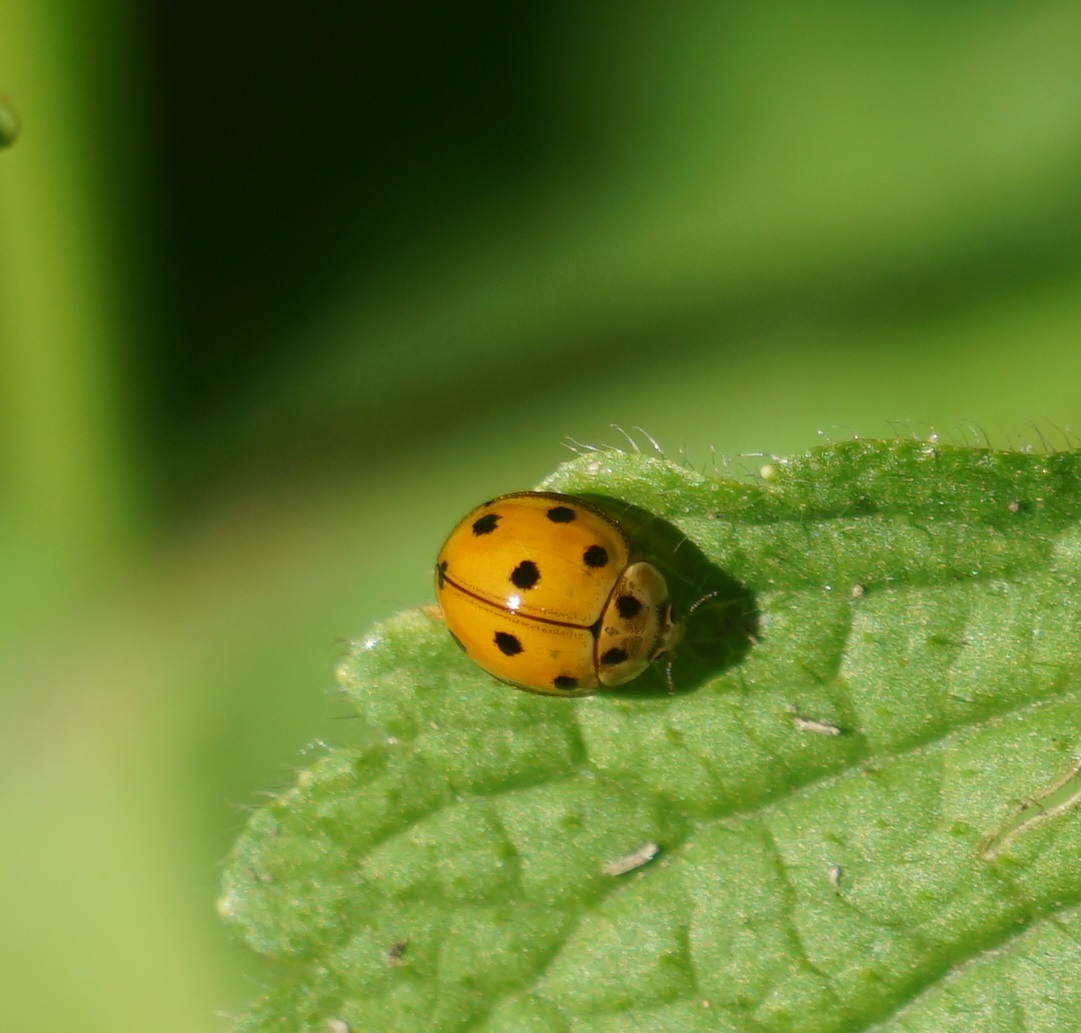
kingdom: Animalia
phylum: Arthropoda
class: Insecta
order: Coleoptera
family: Coccinellidae
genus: Coelophora
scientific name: Coelophora inaequalis
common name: Common australian lady beetle
